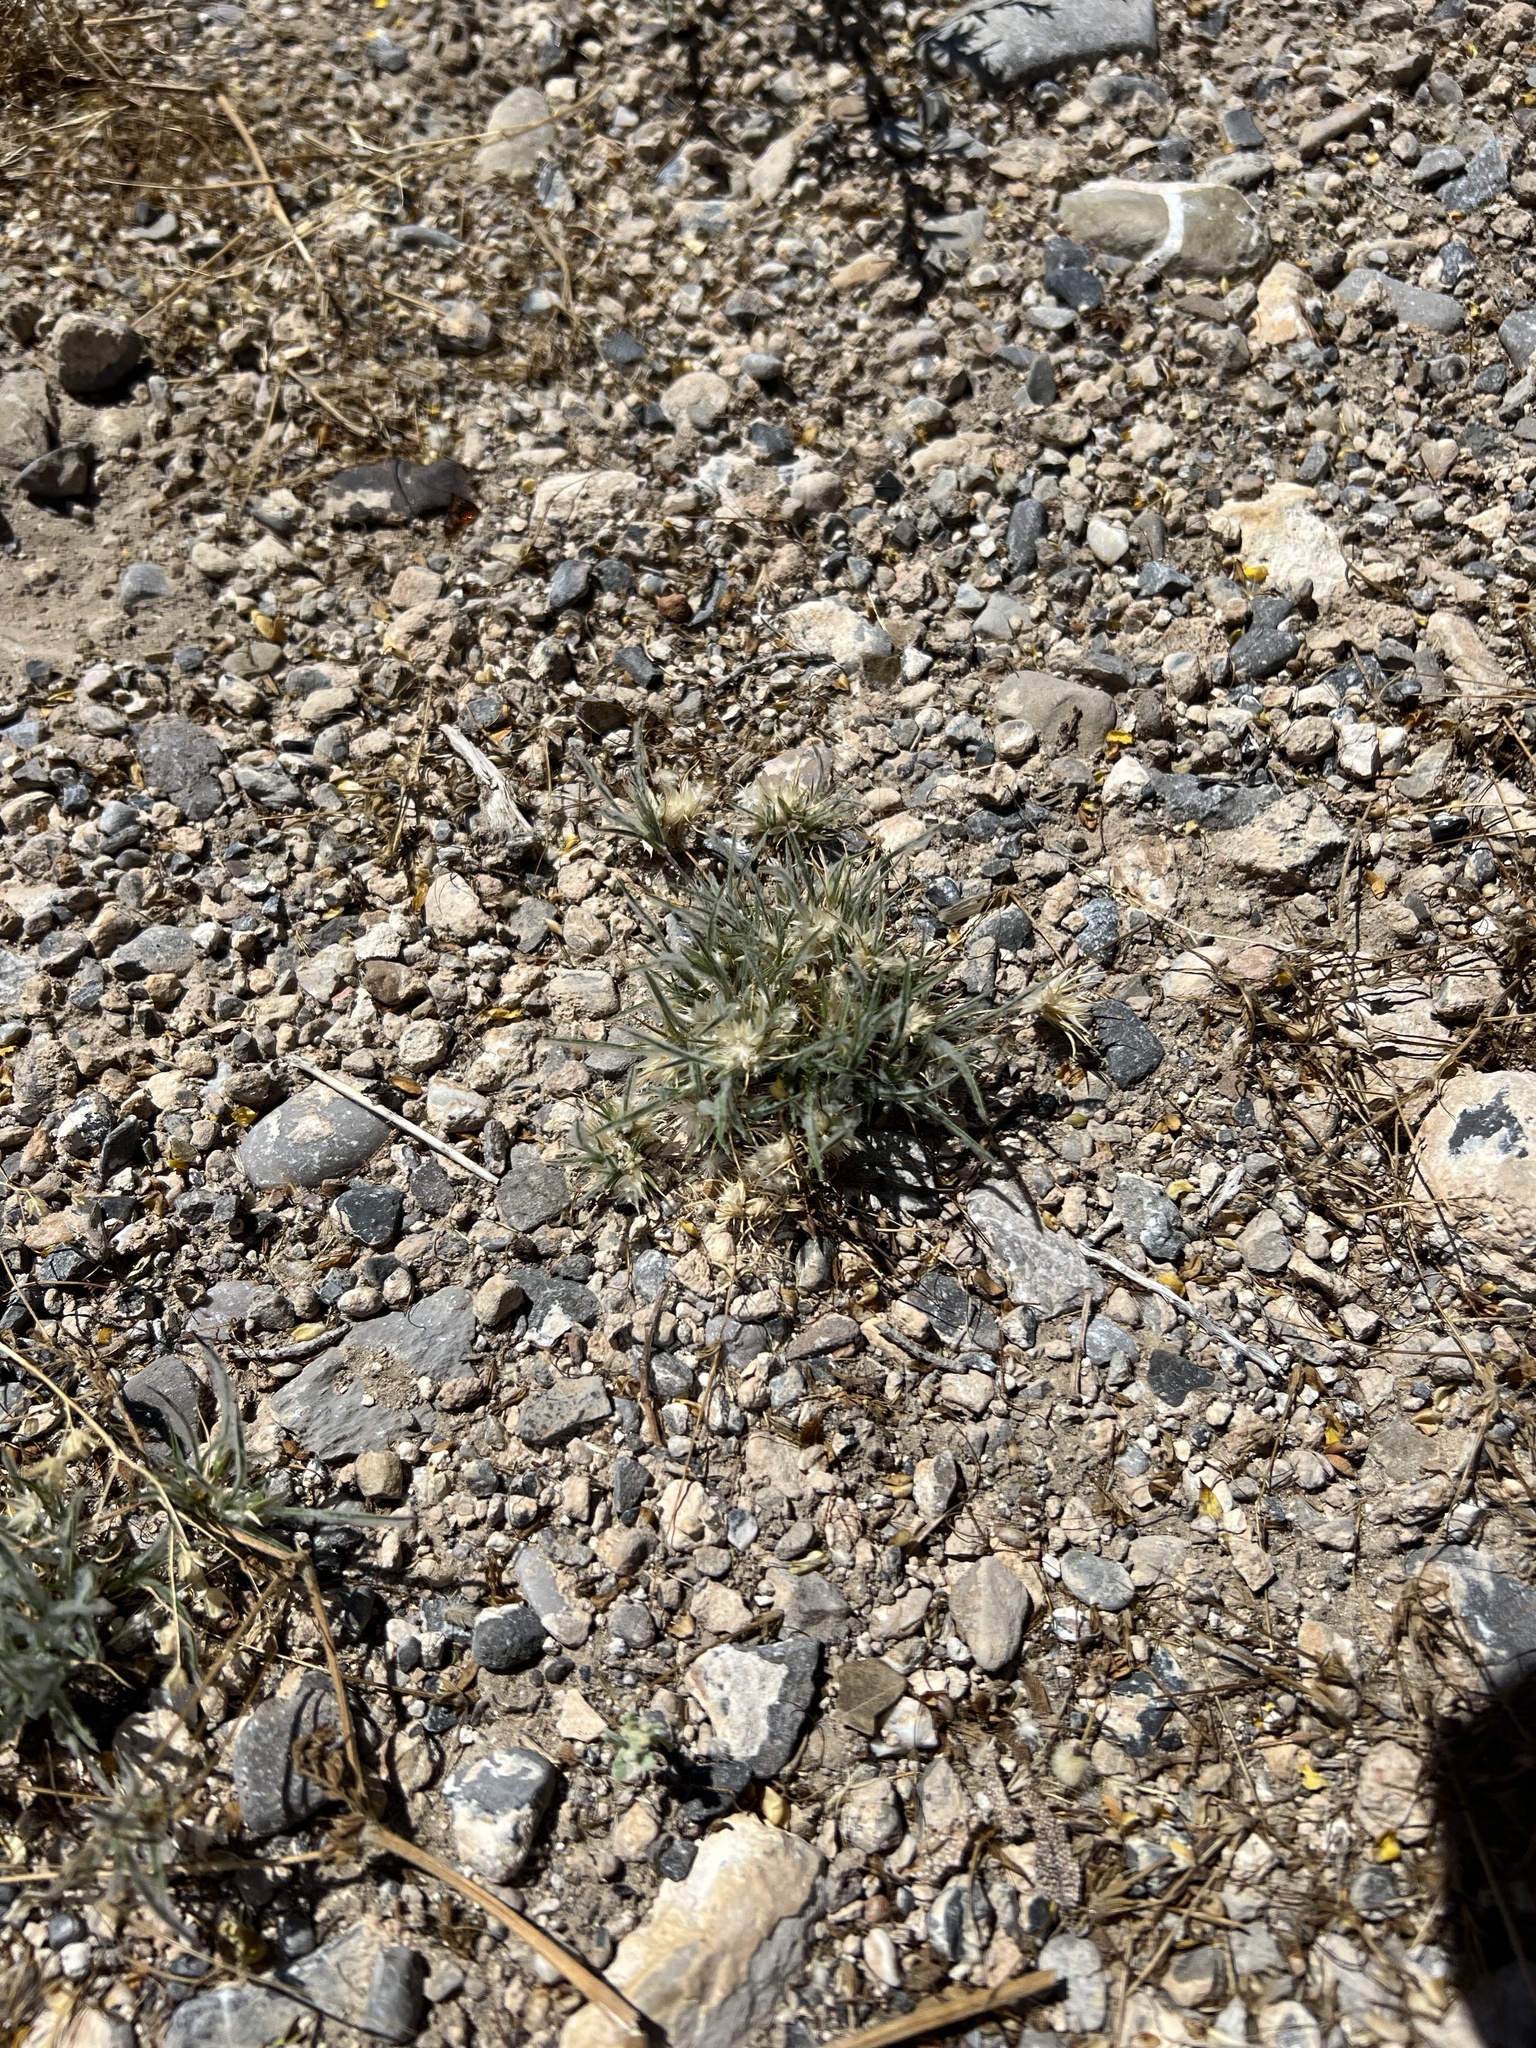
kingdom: Plantae
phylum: Tracheophyta
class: Liliopsida
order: Poales
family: Poaceae
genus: Dasyochloa
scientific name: Dasyochloa pulchella
